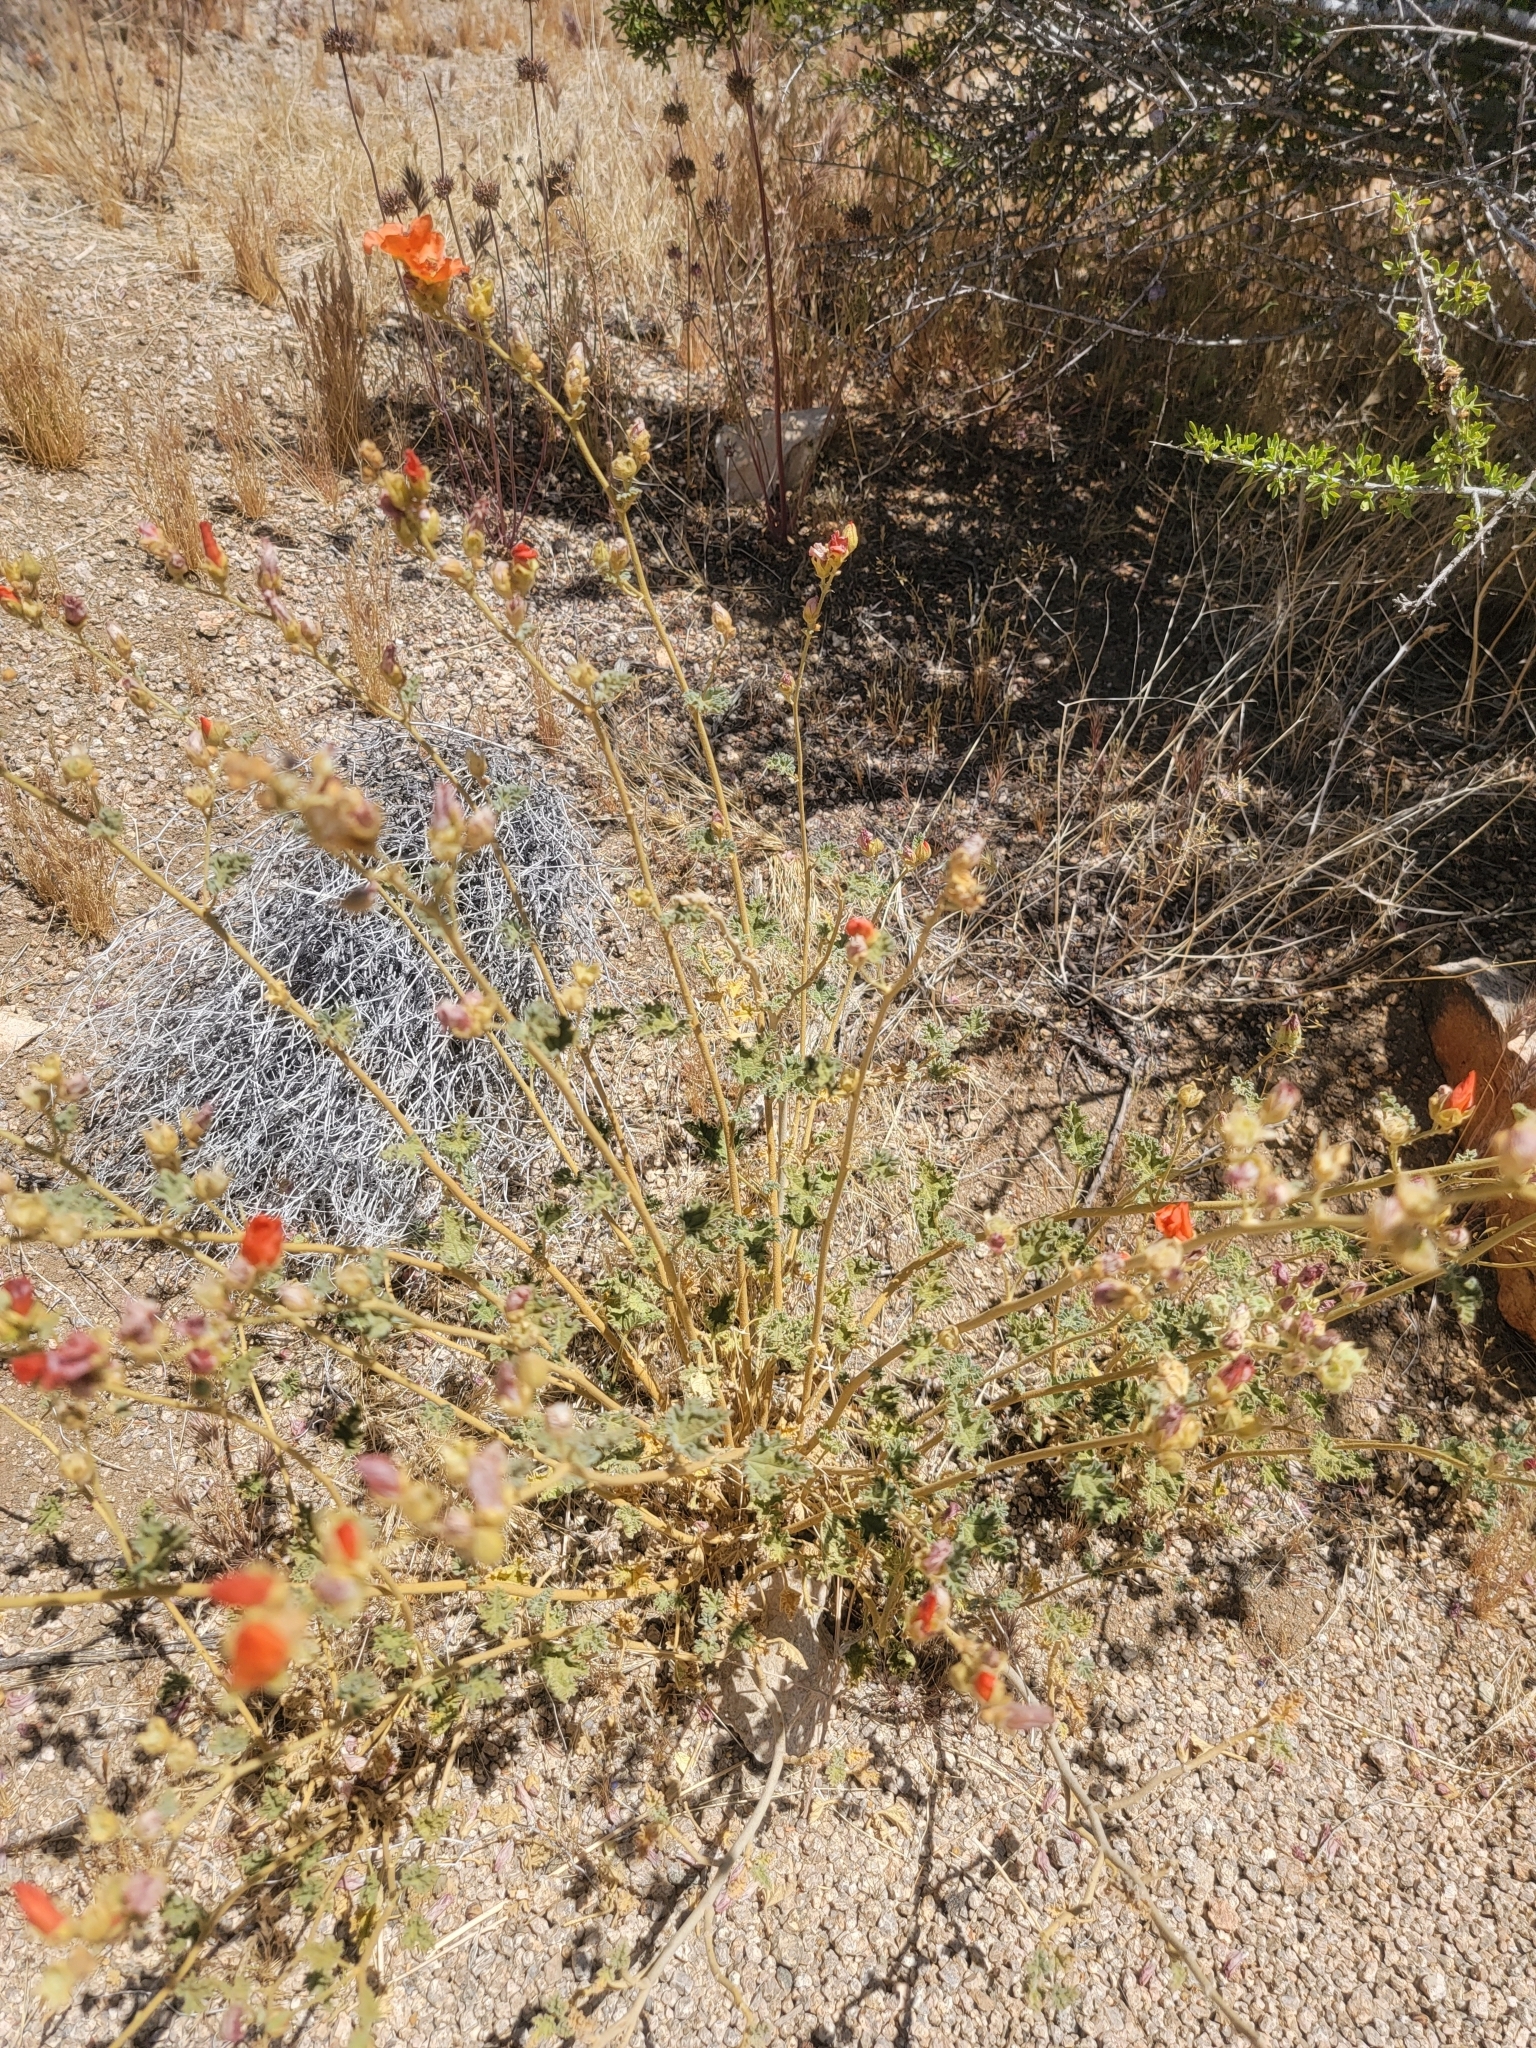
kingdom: Plantae
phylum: Tracheophyta
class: Magnoliopsida
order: Malvales
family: Malvaceae
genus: Sphaeralcea
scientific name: Sphaeralcea ambigua
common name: Apricot globe-mallow
